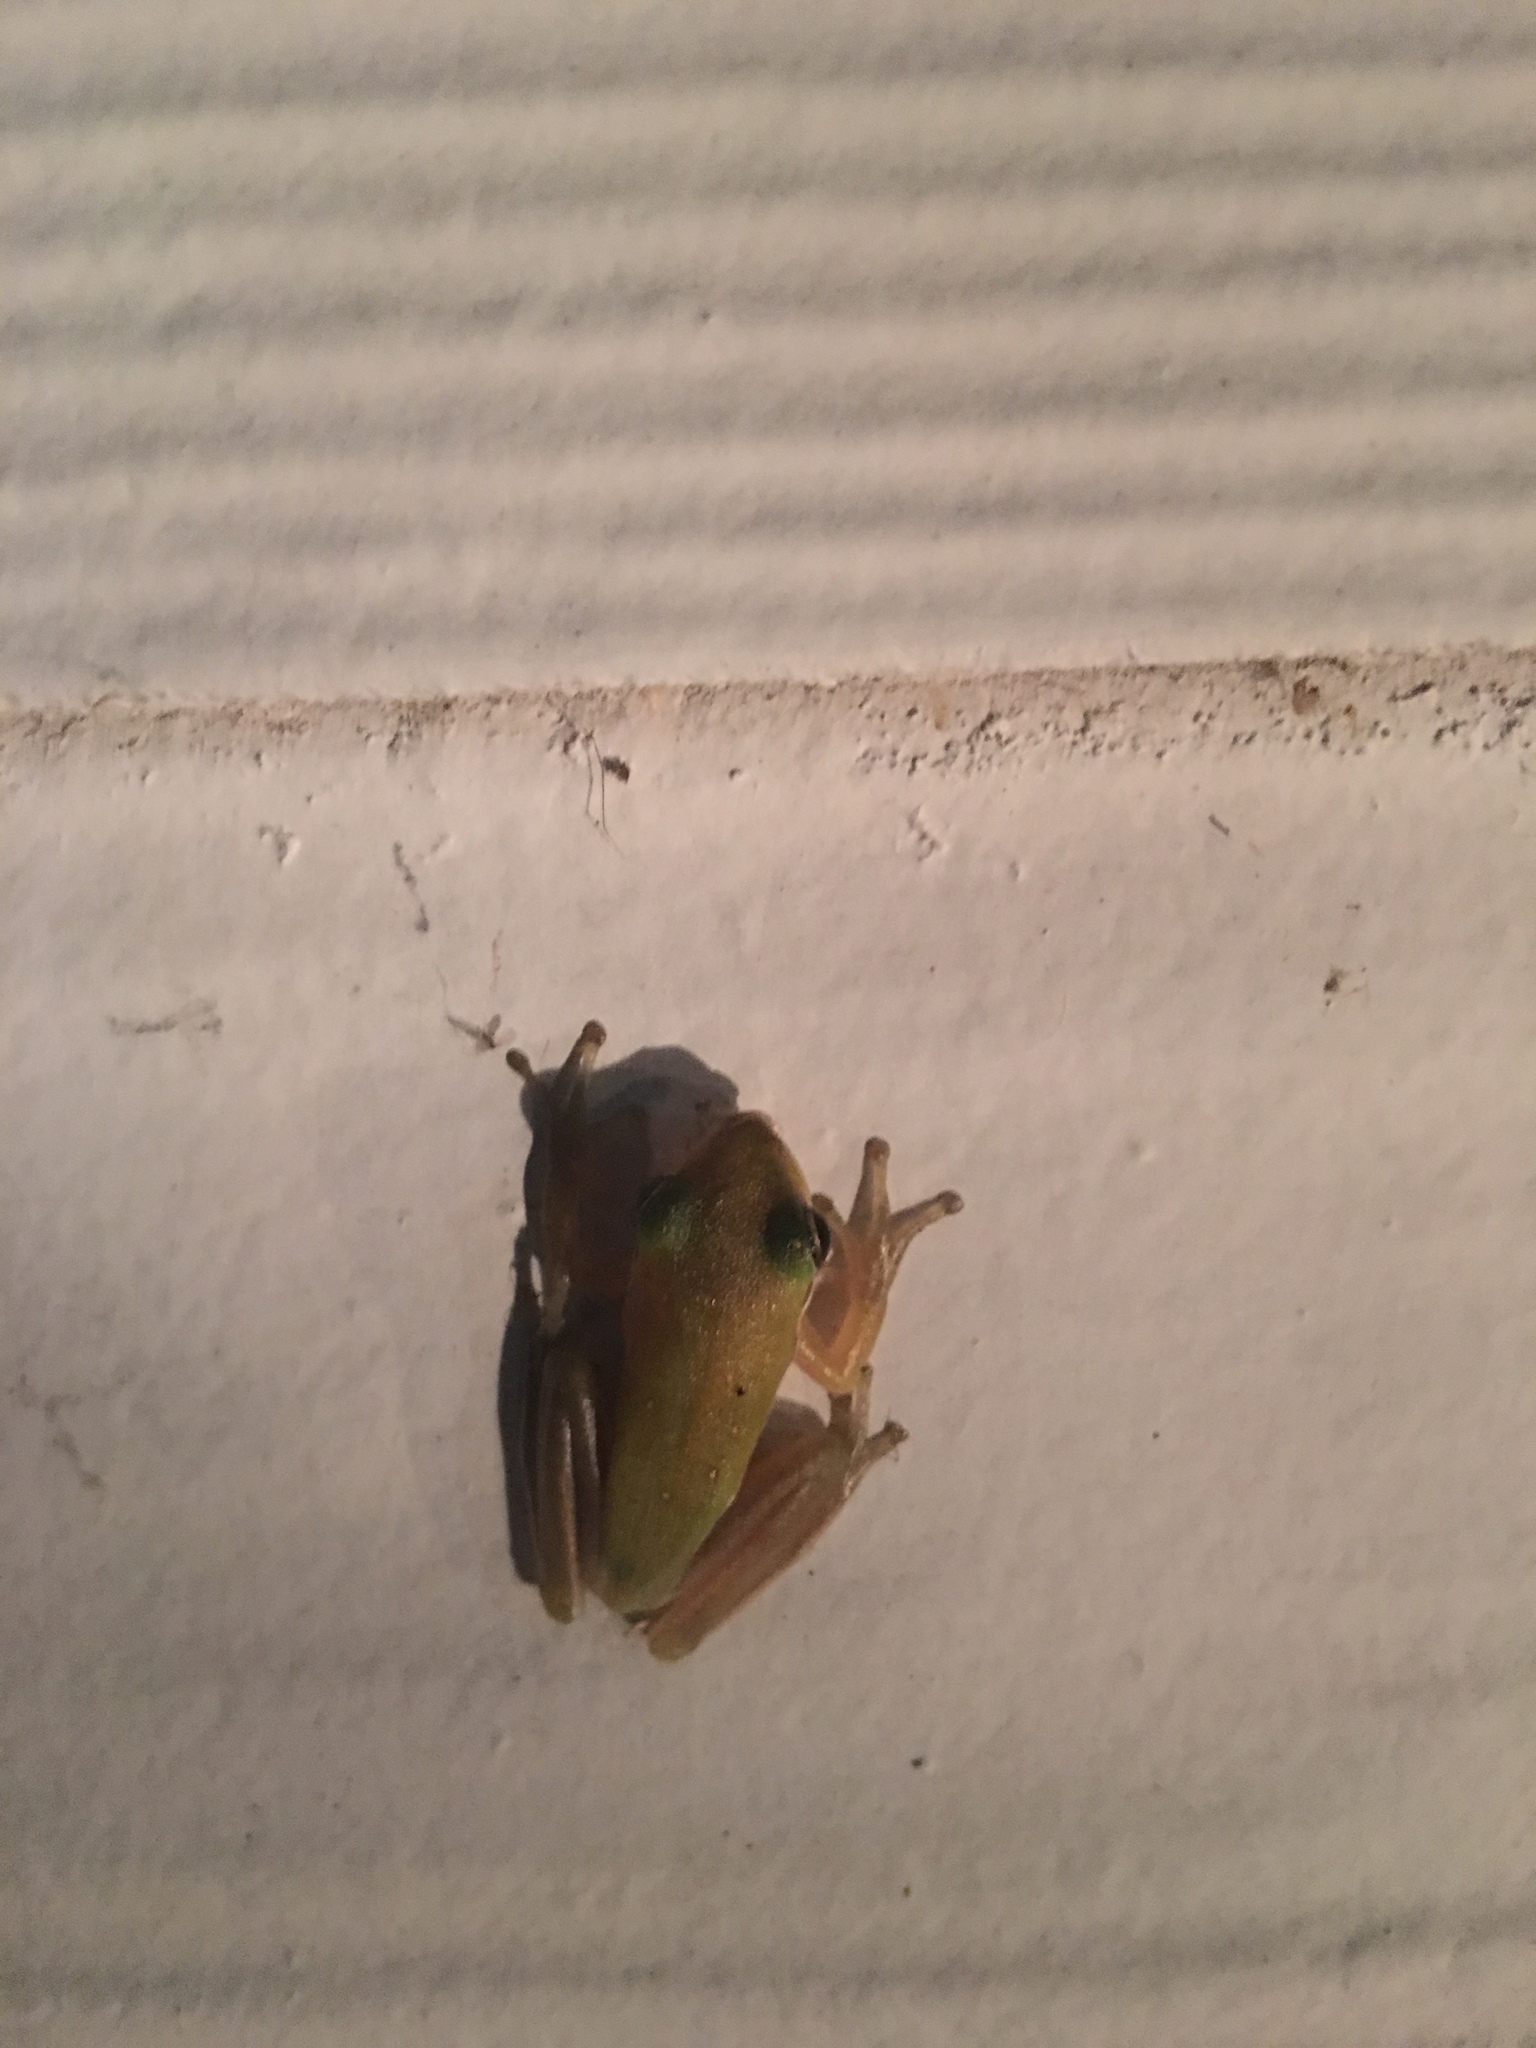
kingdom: Animalia
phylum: Chordata
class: Amphibia
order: Anura
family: Hylidae
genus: Dryophytes
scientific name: Dryophytes cinereus
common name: Green treefrog
